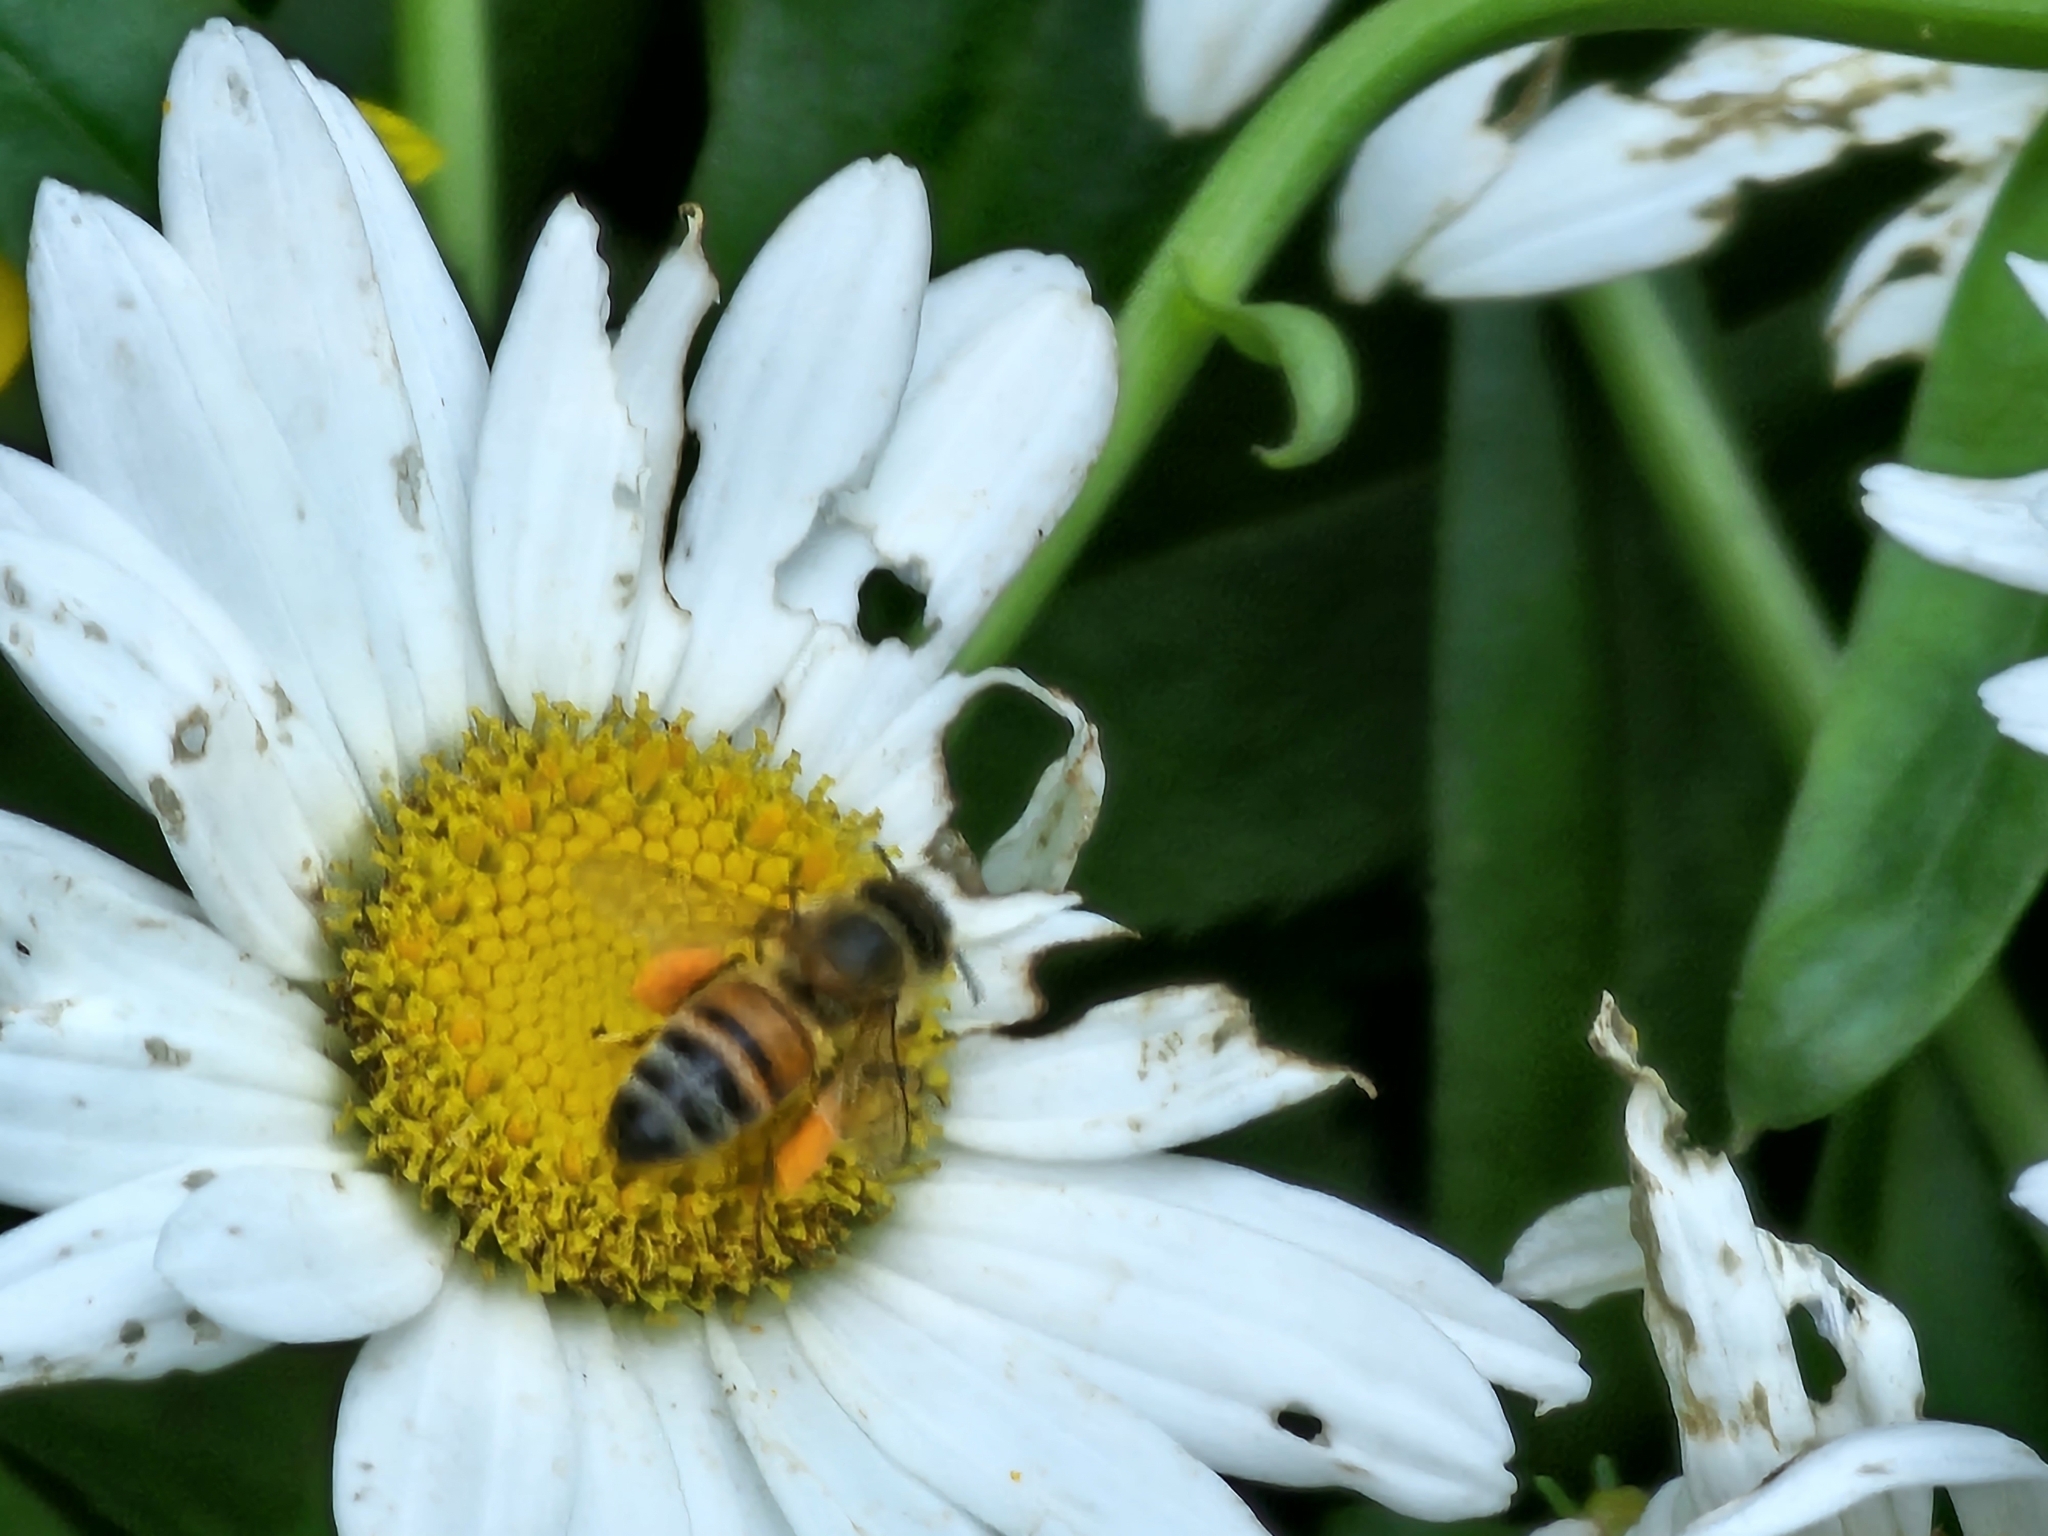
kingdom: Animalia
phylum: Arthropoda
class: Insecta
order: Hymenoptera
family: Apidae
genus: Apis
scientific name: Apis mellifera
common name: Honey bee
